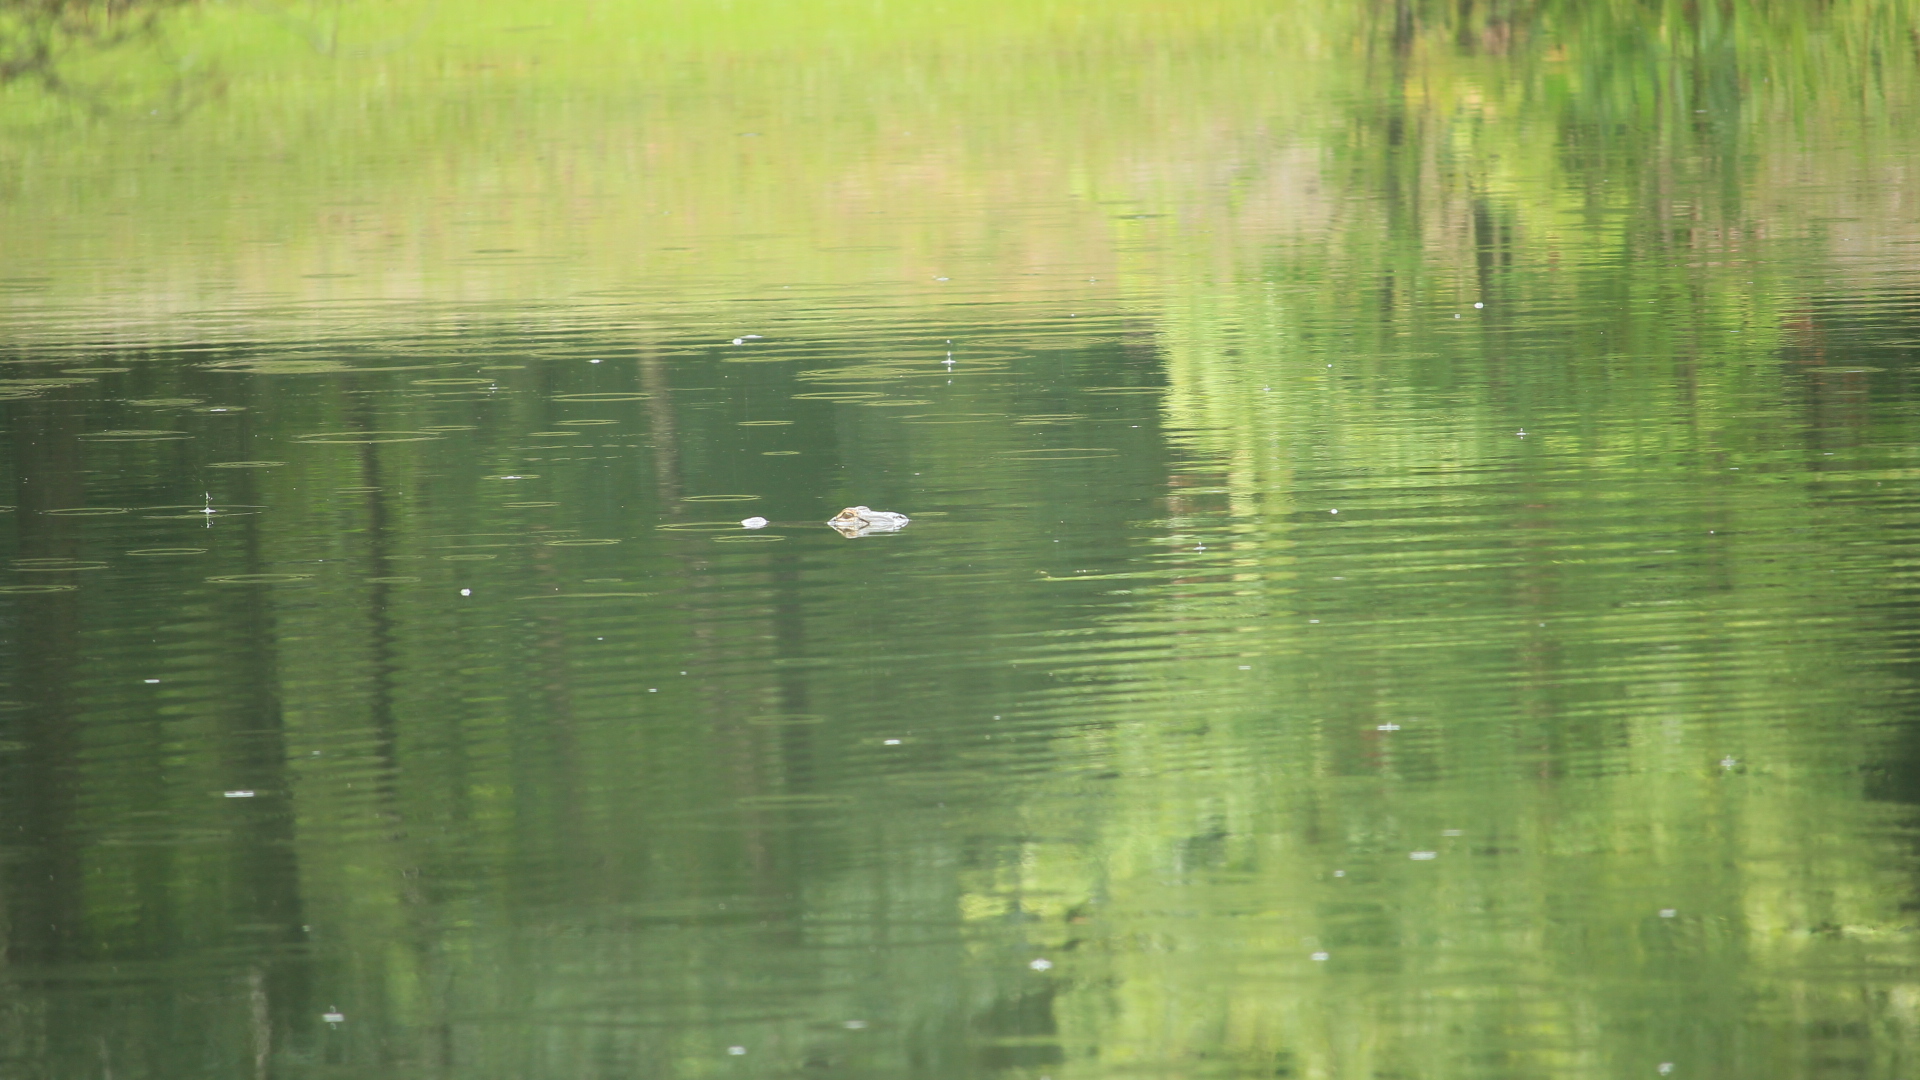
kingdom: Animalia
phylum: Chordata
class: Crocodylia
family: Alligatoridae
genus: Alligator
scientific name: Alligator mississippiensis
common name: American alligator
